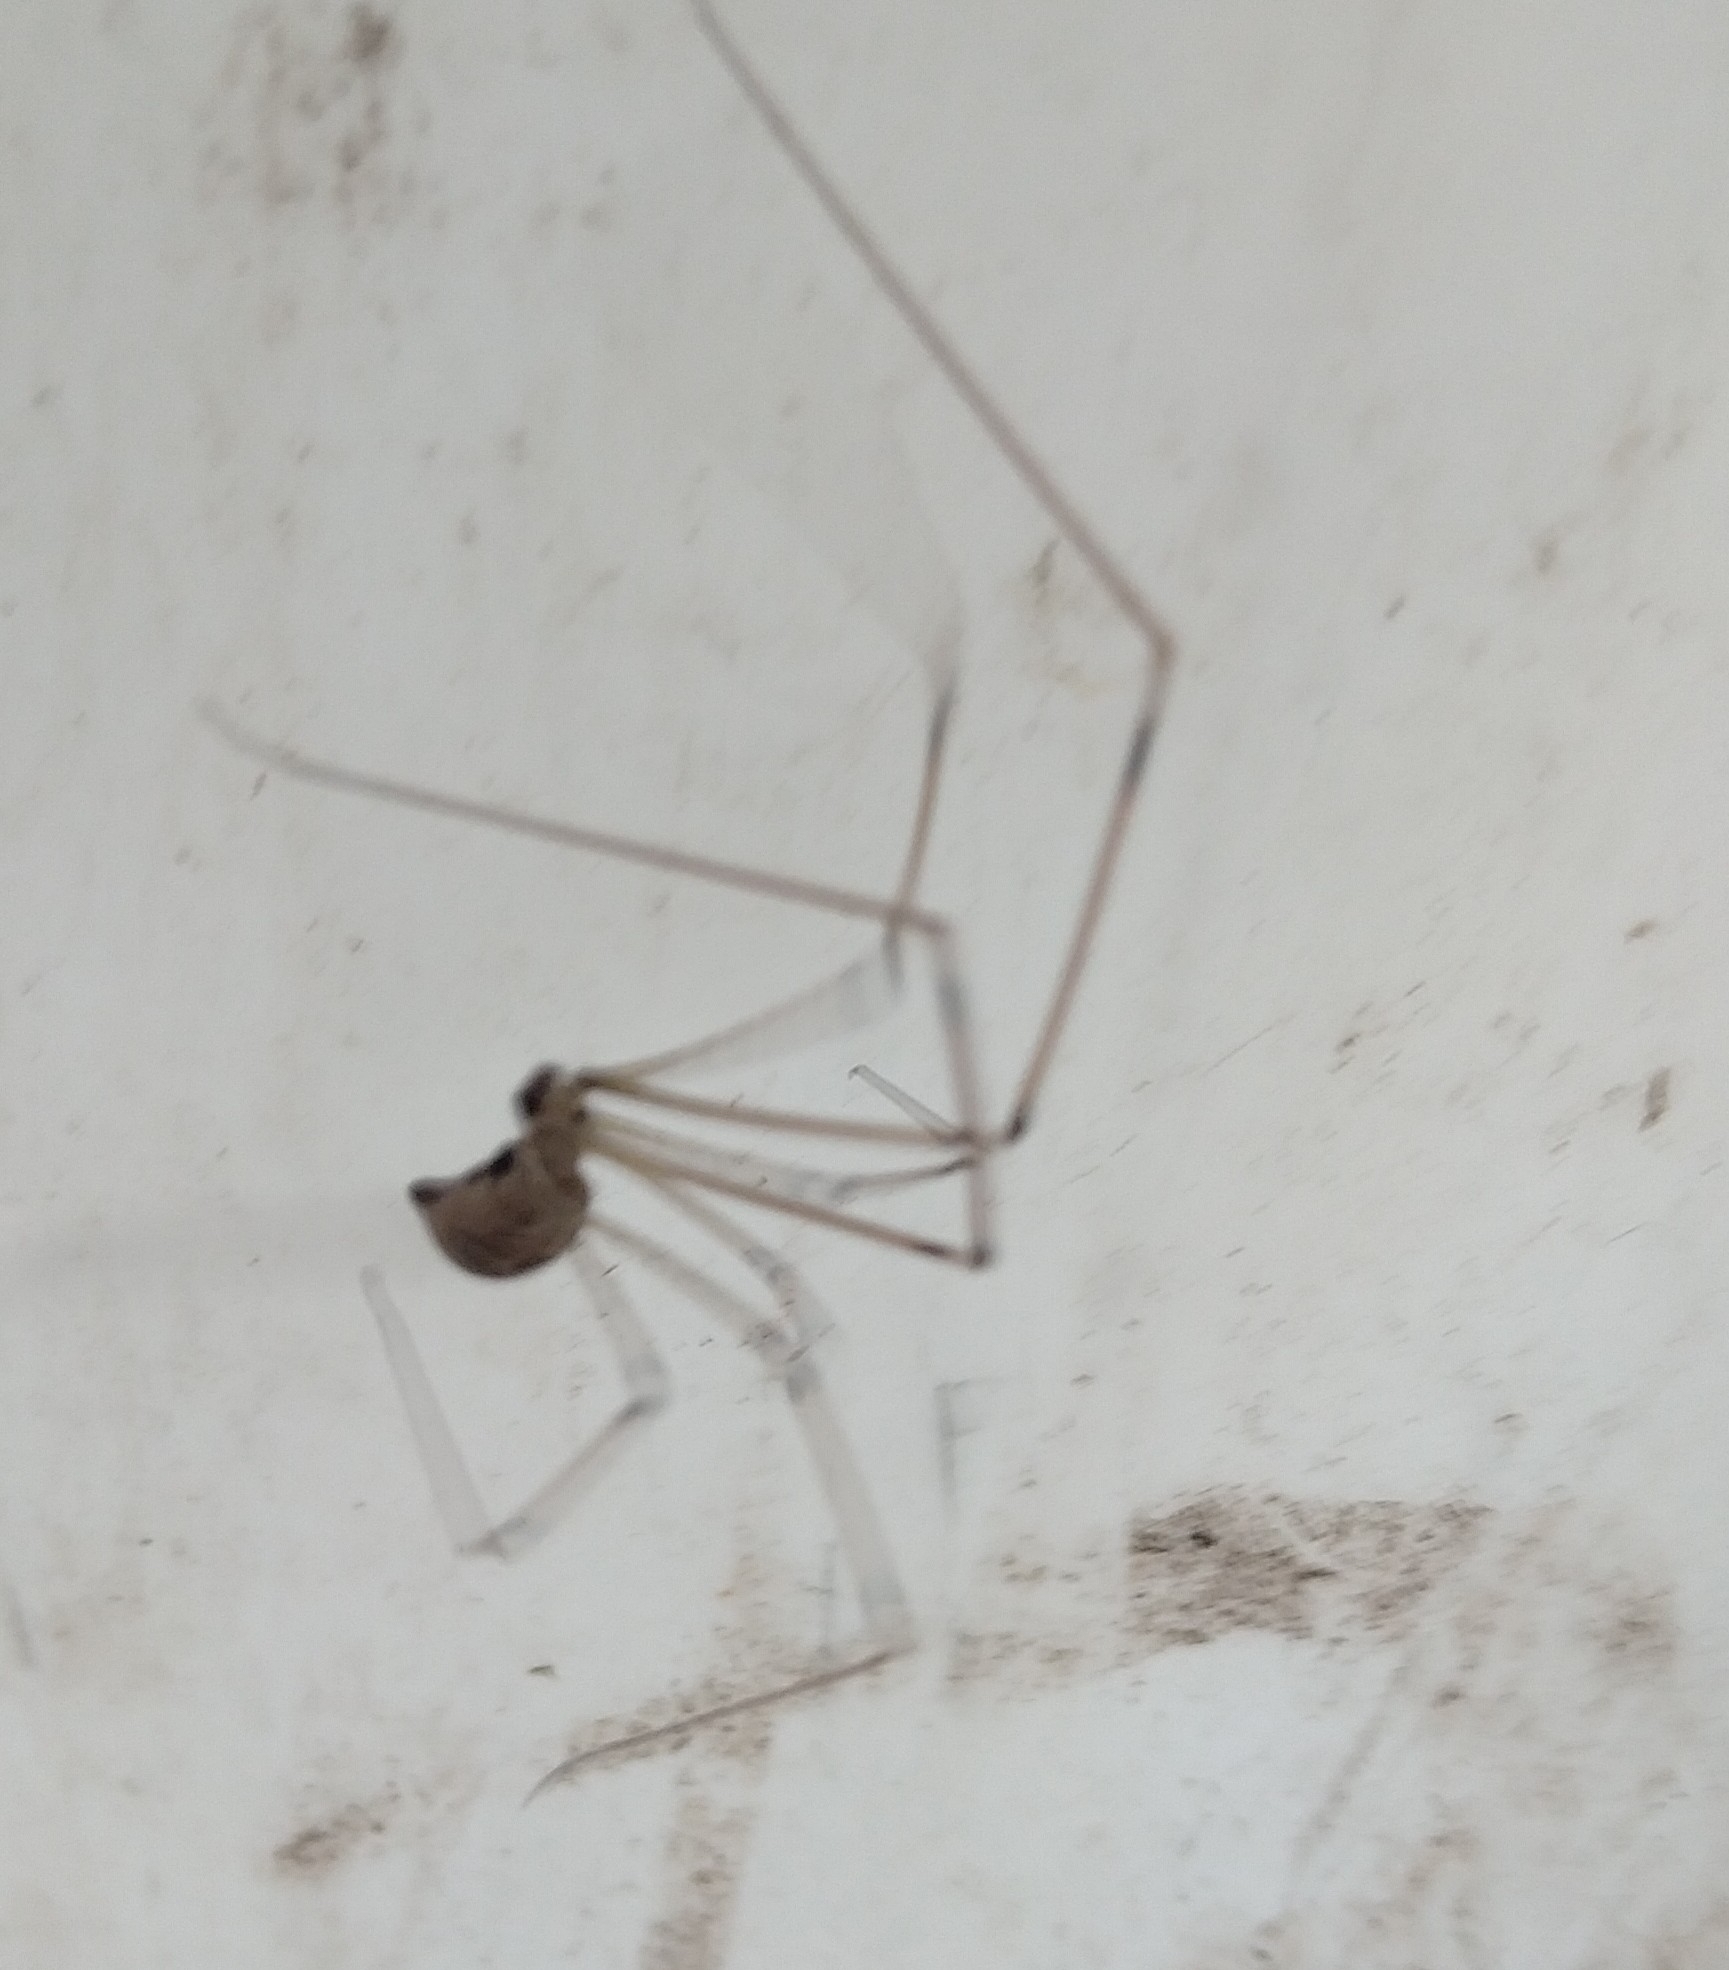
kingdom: Animalia
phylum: Arthropoda
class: Arachnida
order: Araneae
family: Pholcidae
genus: Holocnemus
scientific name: Holocnemus pluchei
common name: Marbled cellar spider
